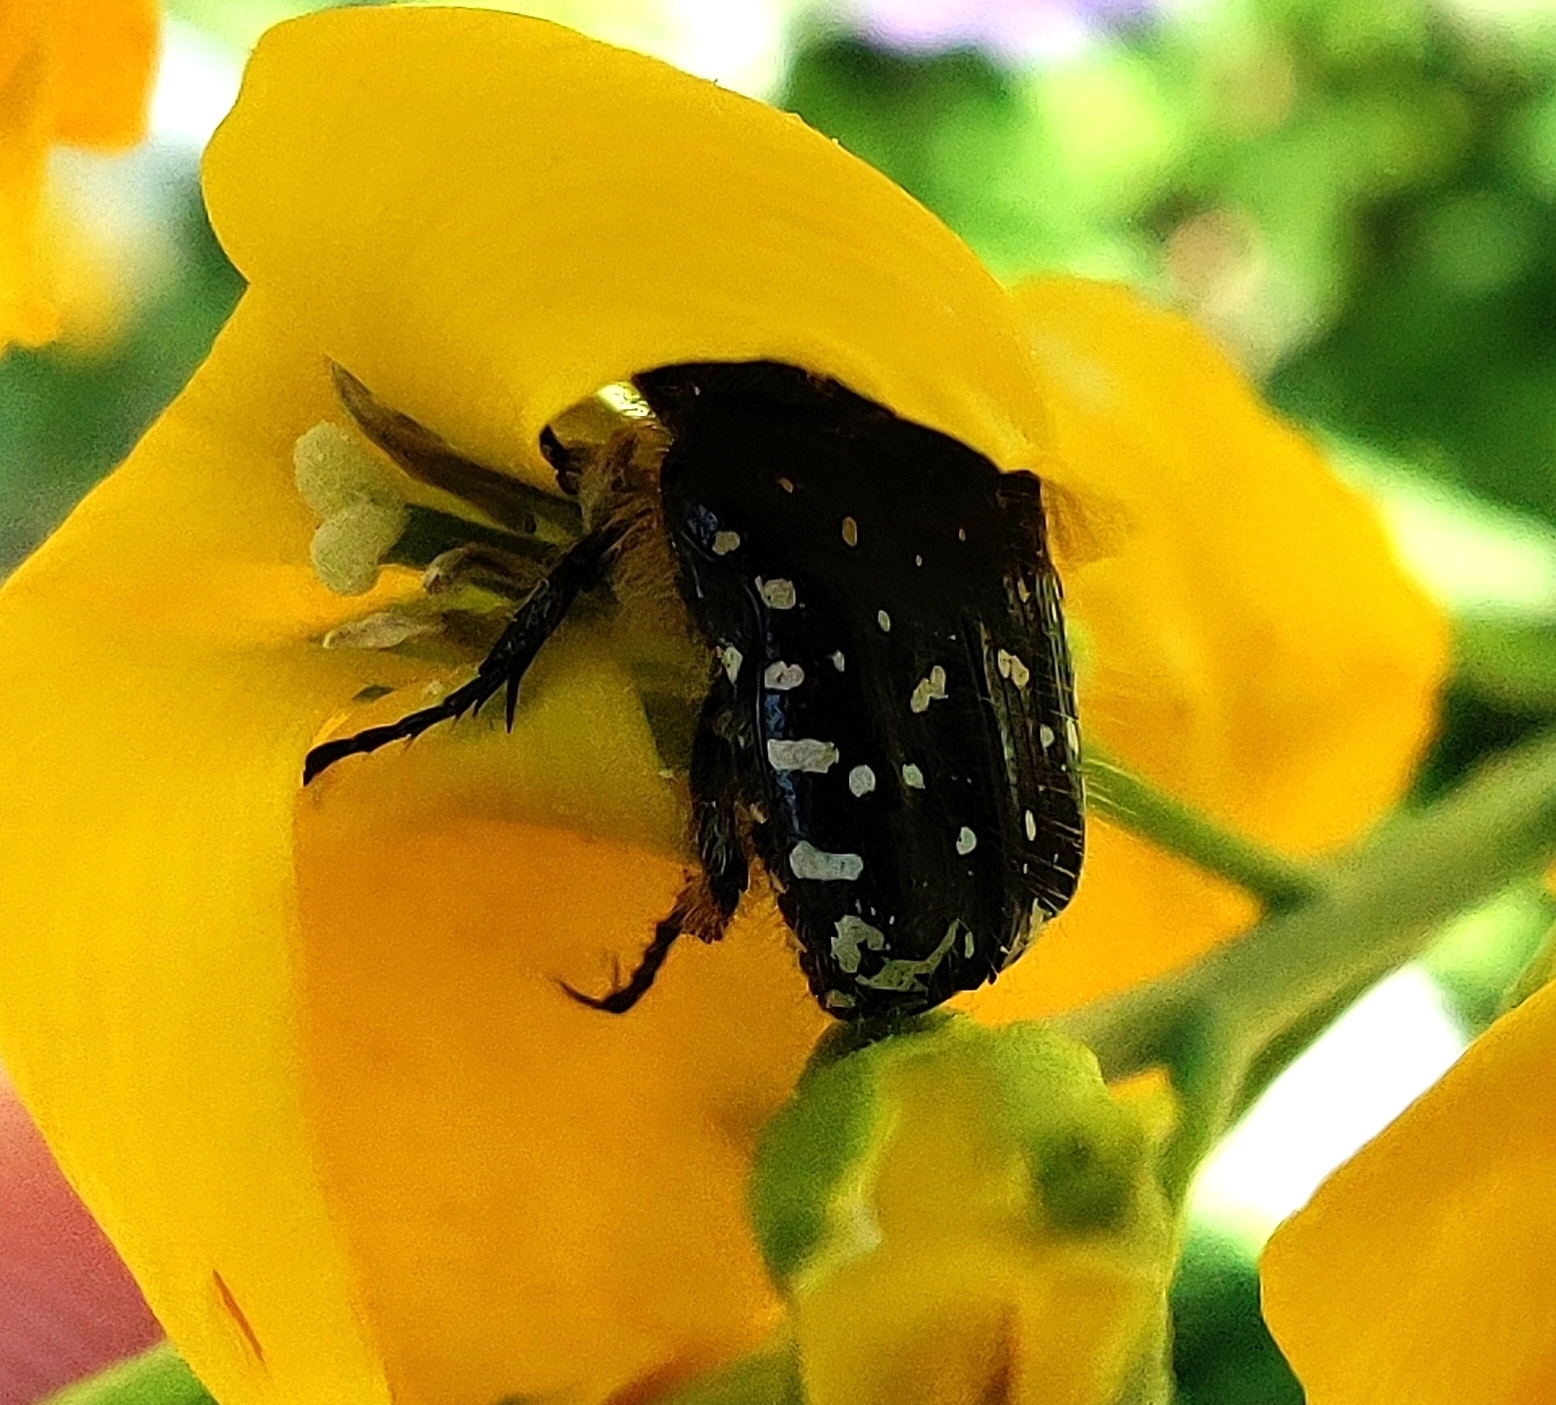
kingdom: Animalia
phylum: Arthropoda
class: Insecta
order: Coleoptera
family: Scarabaeidae
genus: Oxythyrea
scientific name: Oxythyrea funesta
